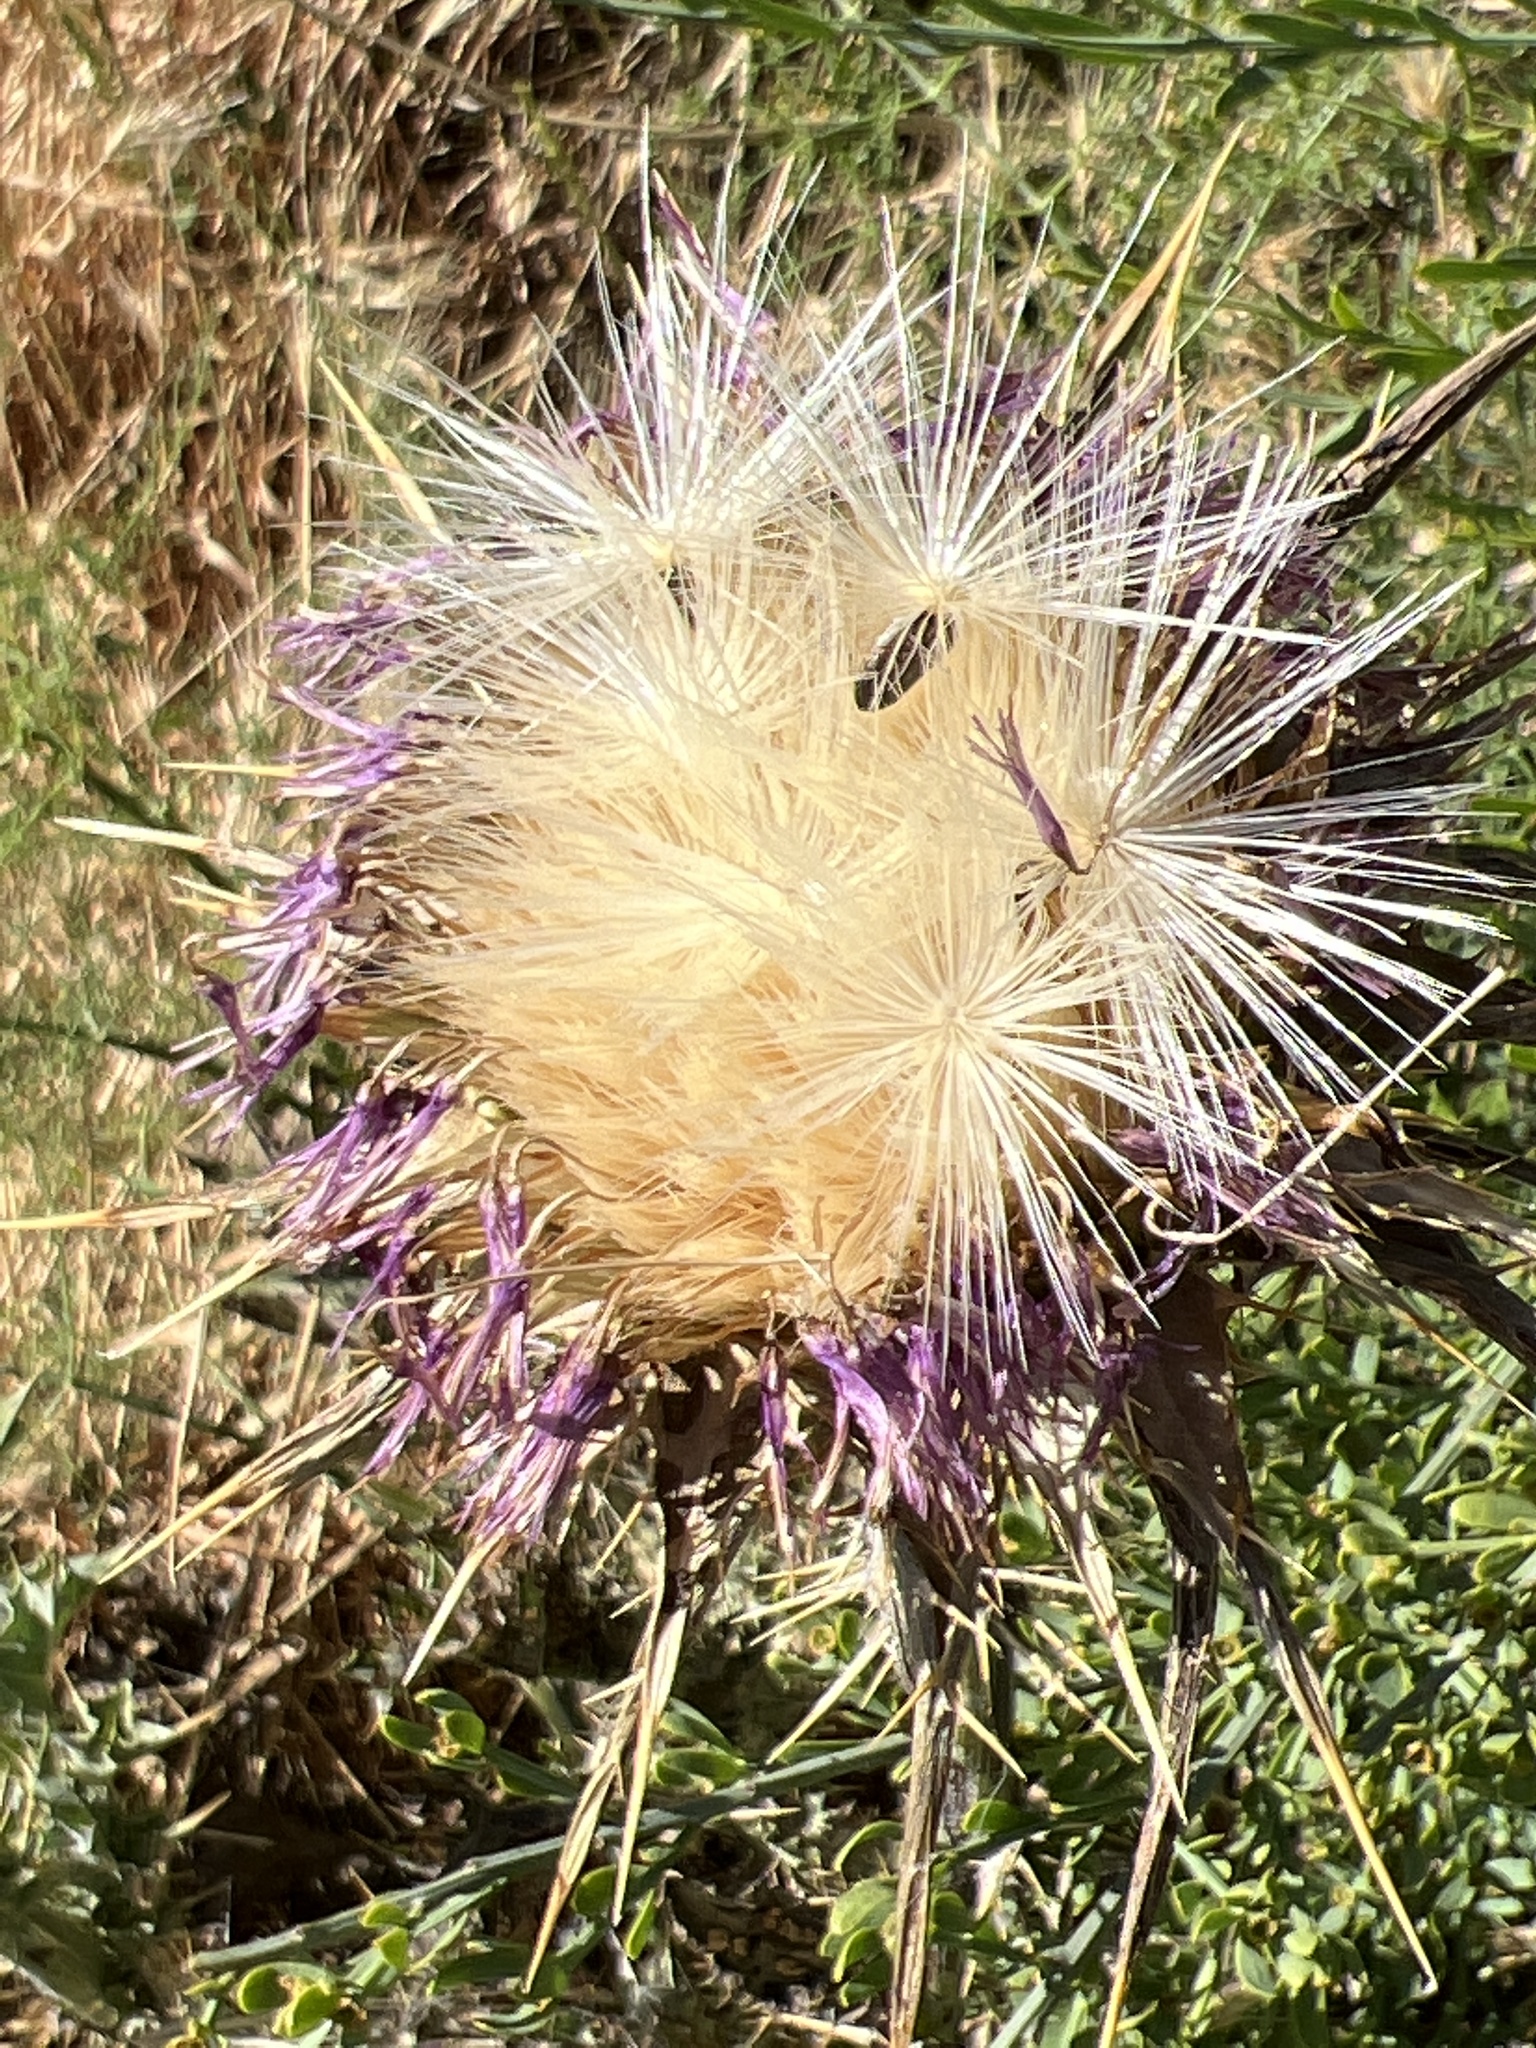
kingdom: Plantae
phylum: Tracheophyta
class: Magnoliopsida
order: Asterales
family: Asteraceae
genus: Silybum
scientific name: Silybum marianum
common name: Milk thistle
